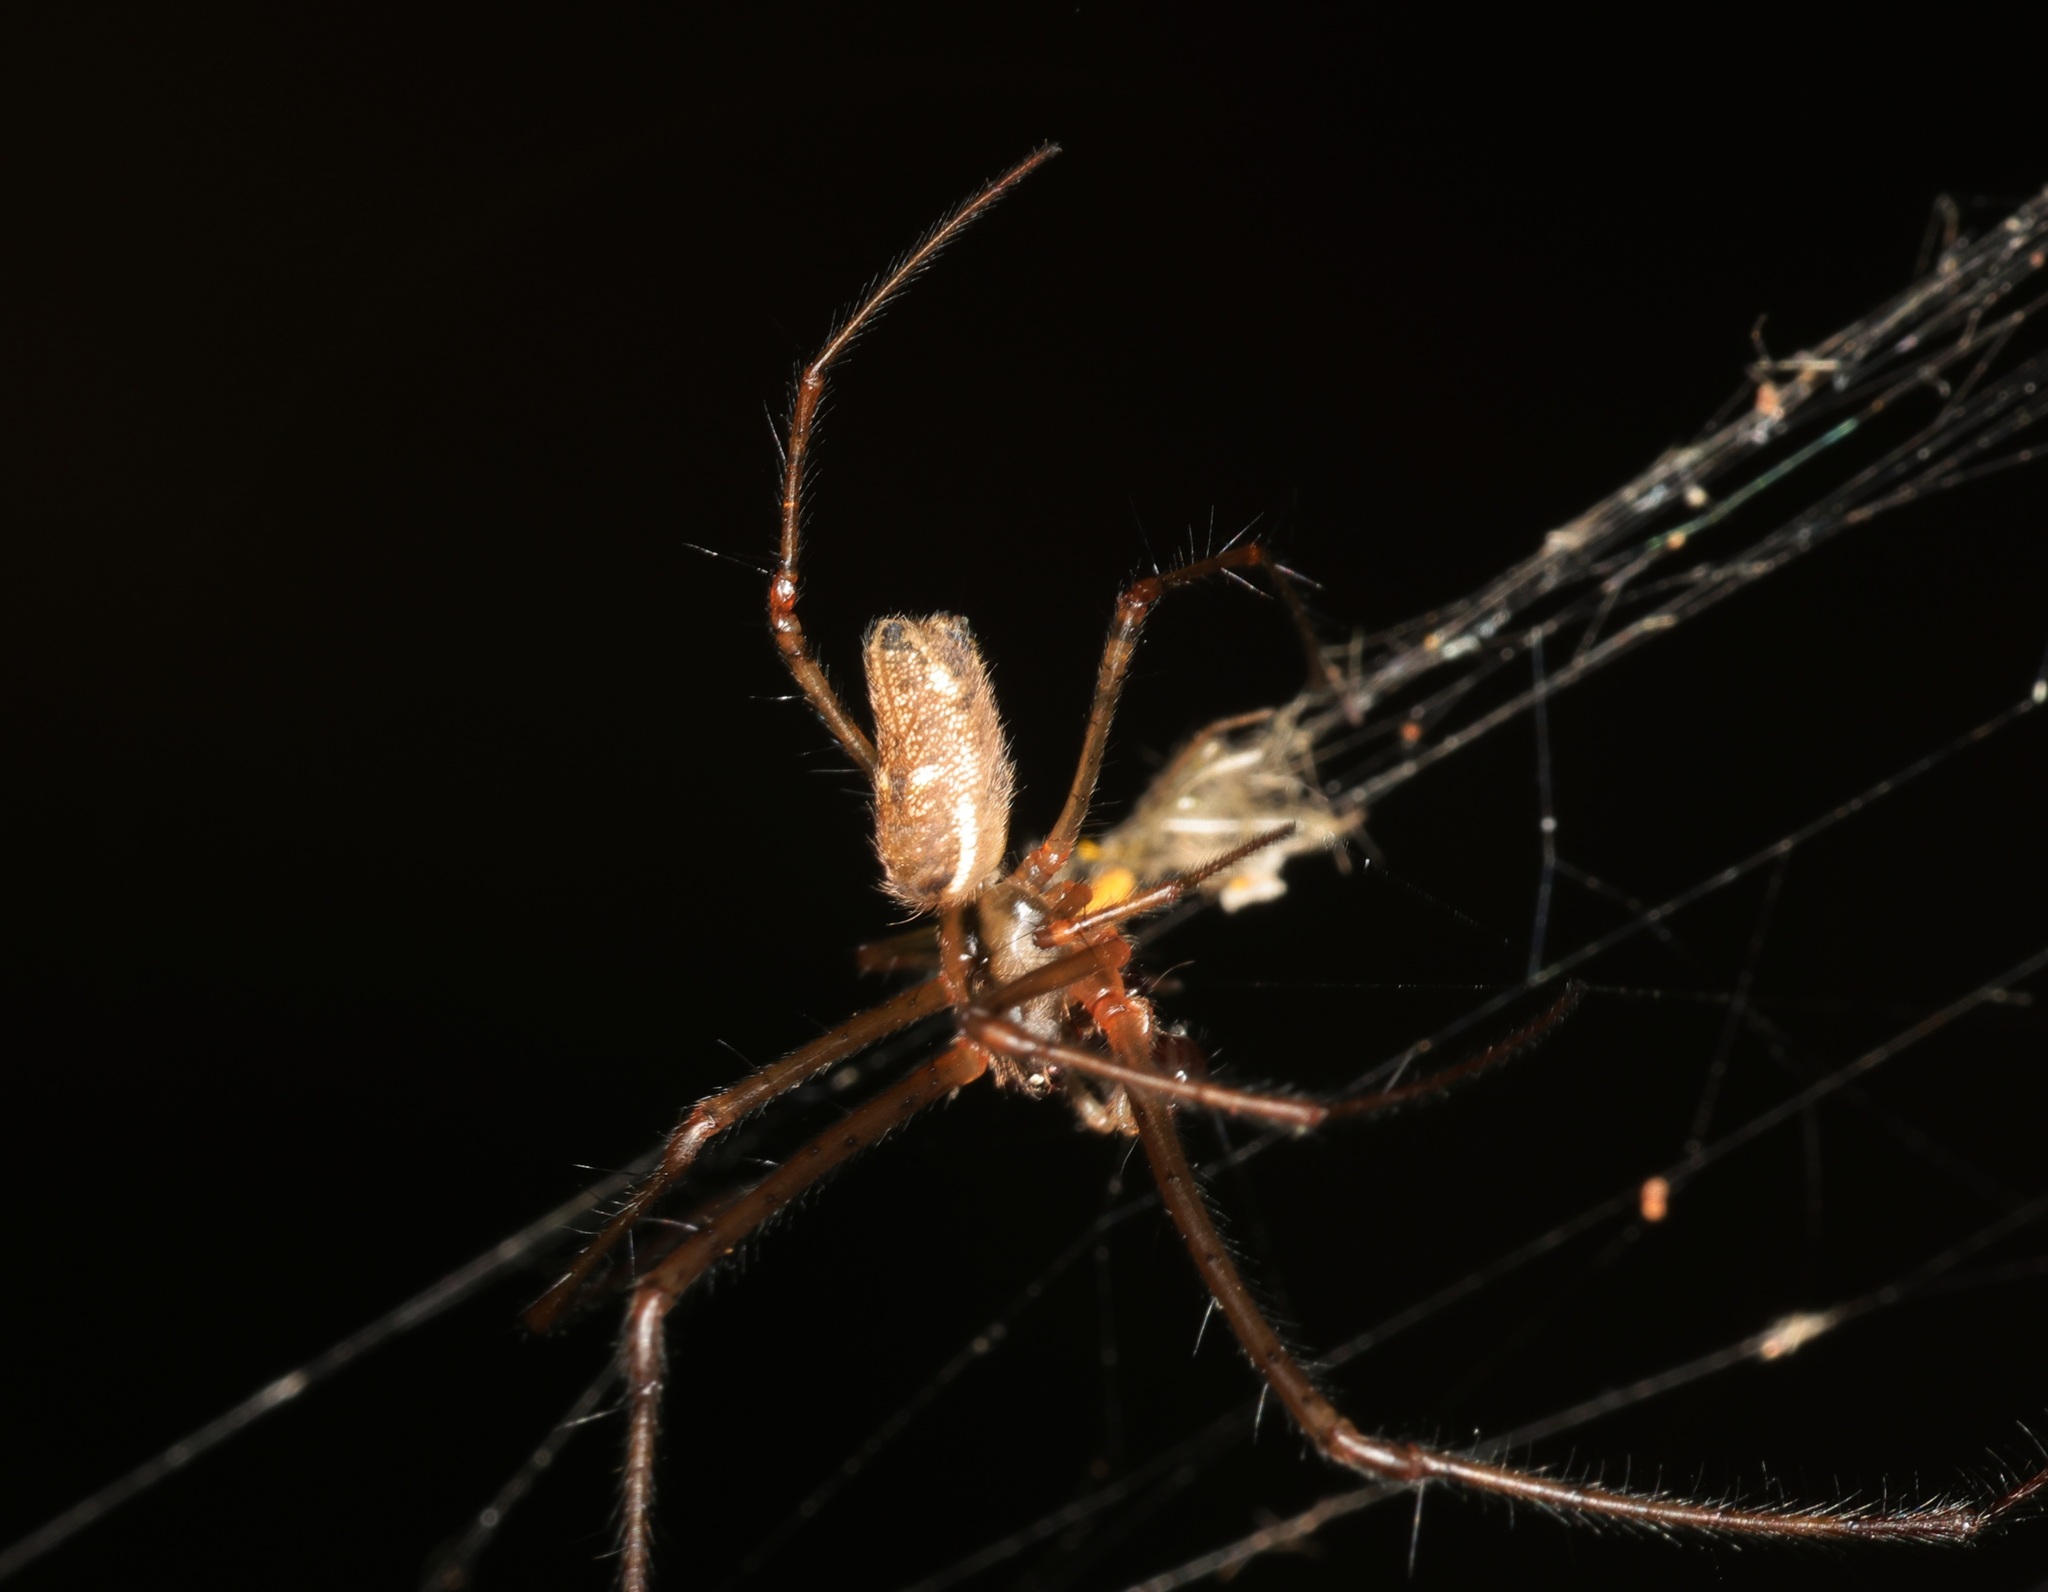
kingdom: Animalia
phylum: Arthropoda
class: Arachnida
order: Araneae
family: Tetragnathidae
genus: Tylorida
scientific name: Tylorida ventralis
